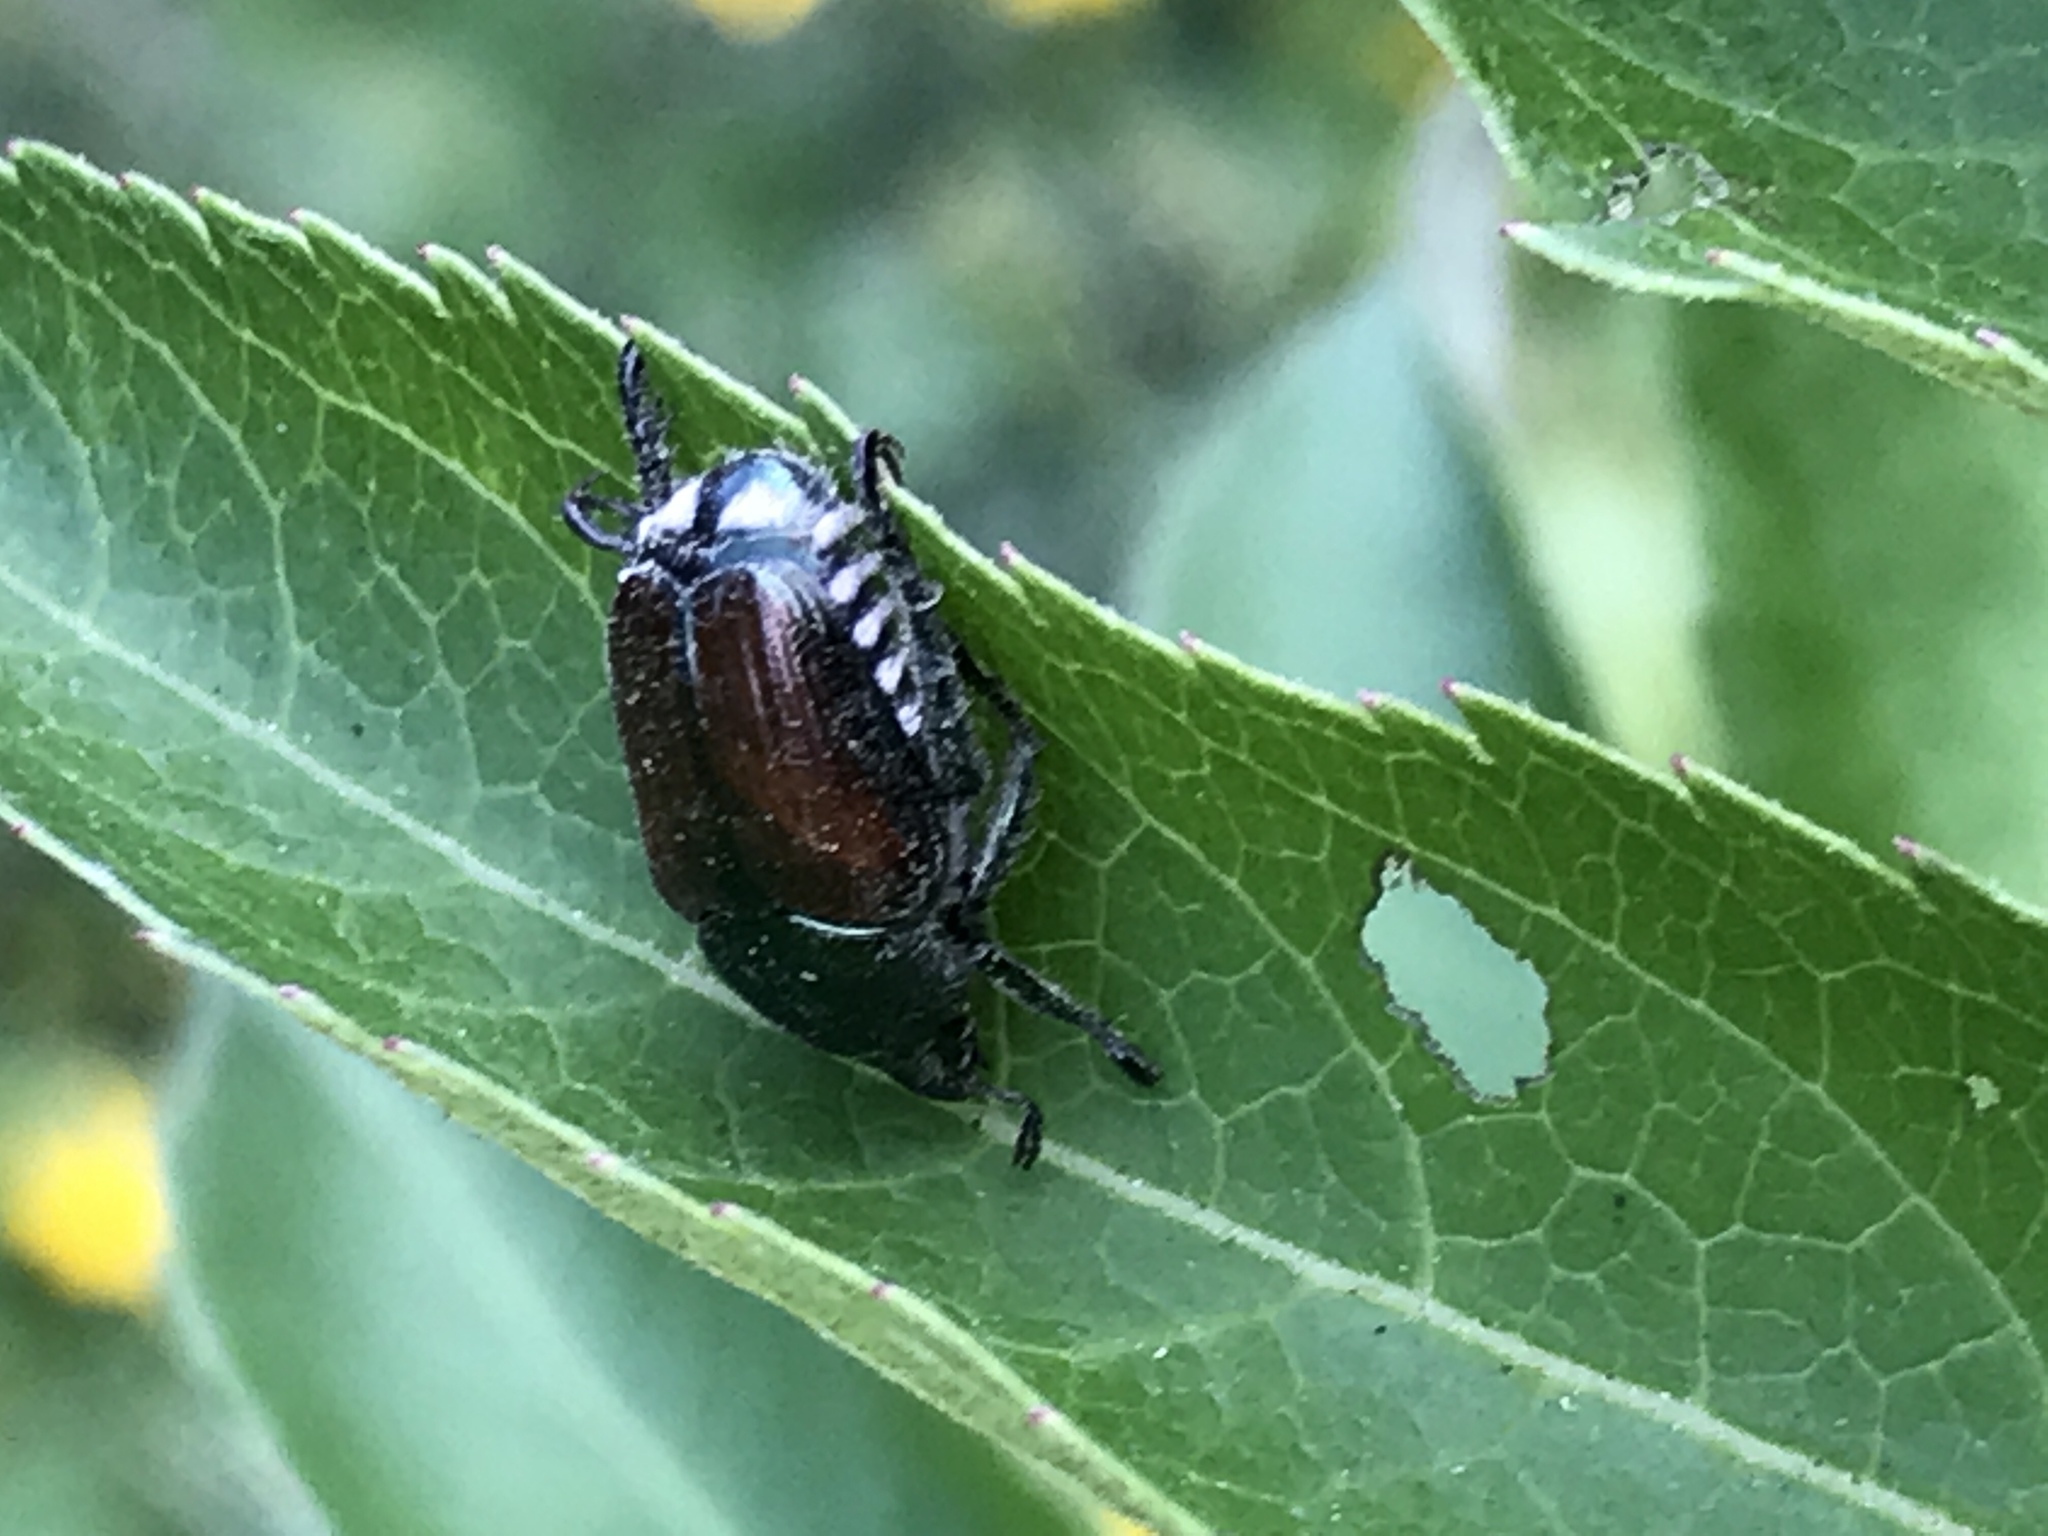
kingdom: Animalia
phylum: Arthropoda
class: Insecta
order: Coleoptera
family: Scarabaeidae
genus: Popillia
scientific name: Popillia japonica
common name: Japanese beetle
